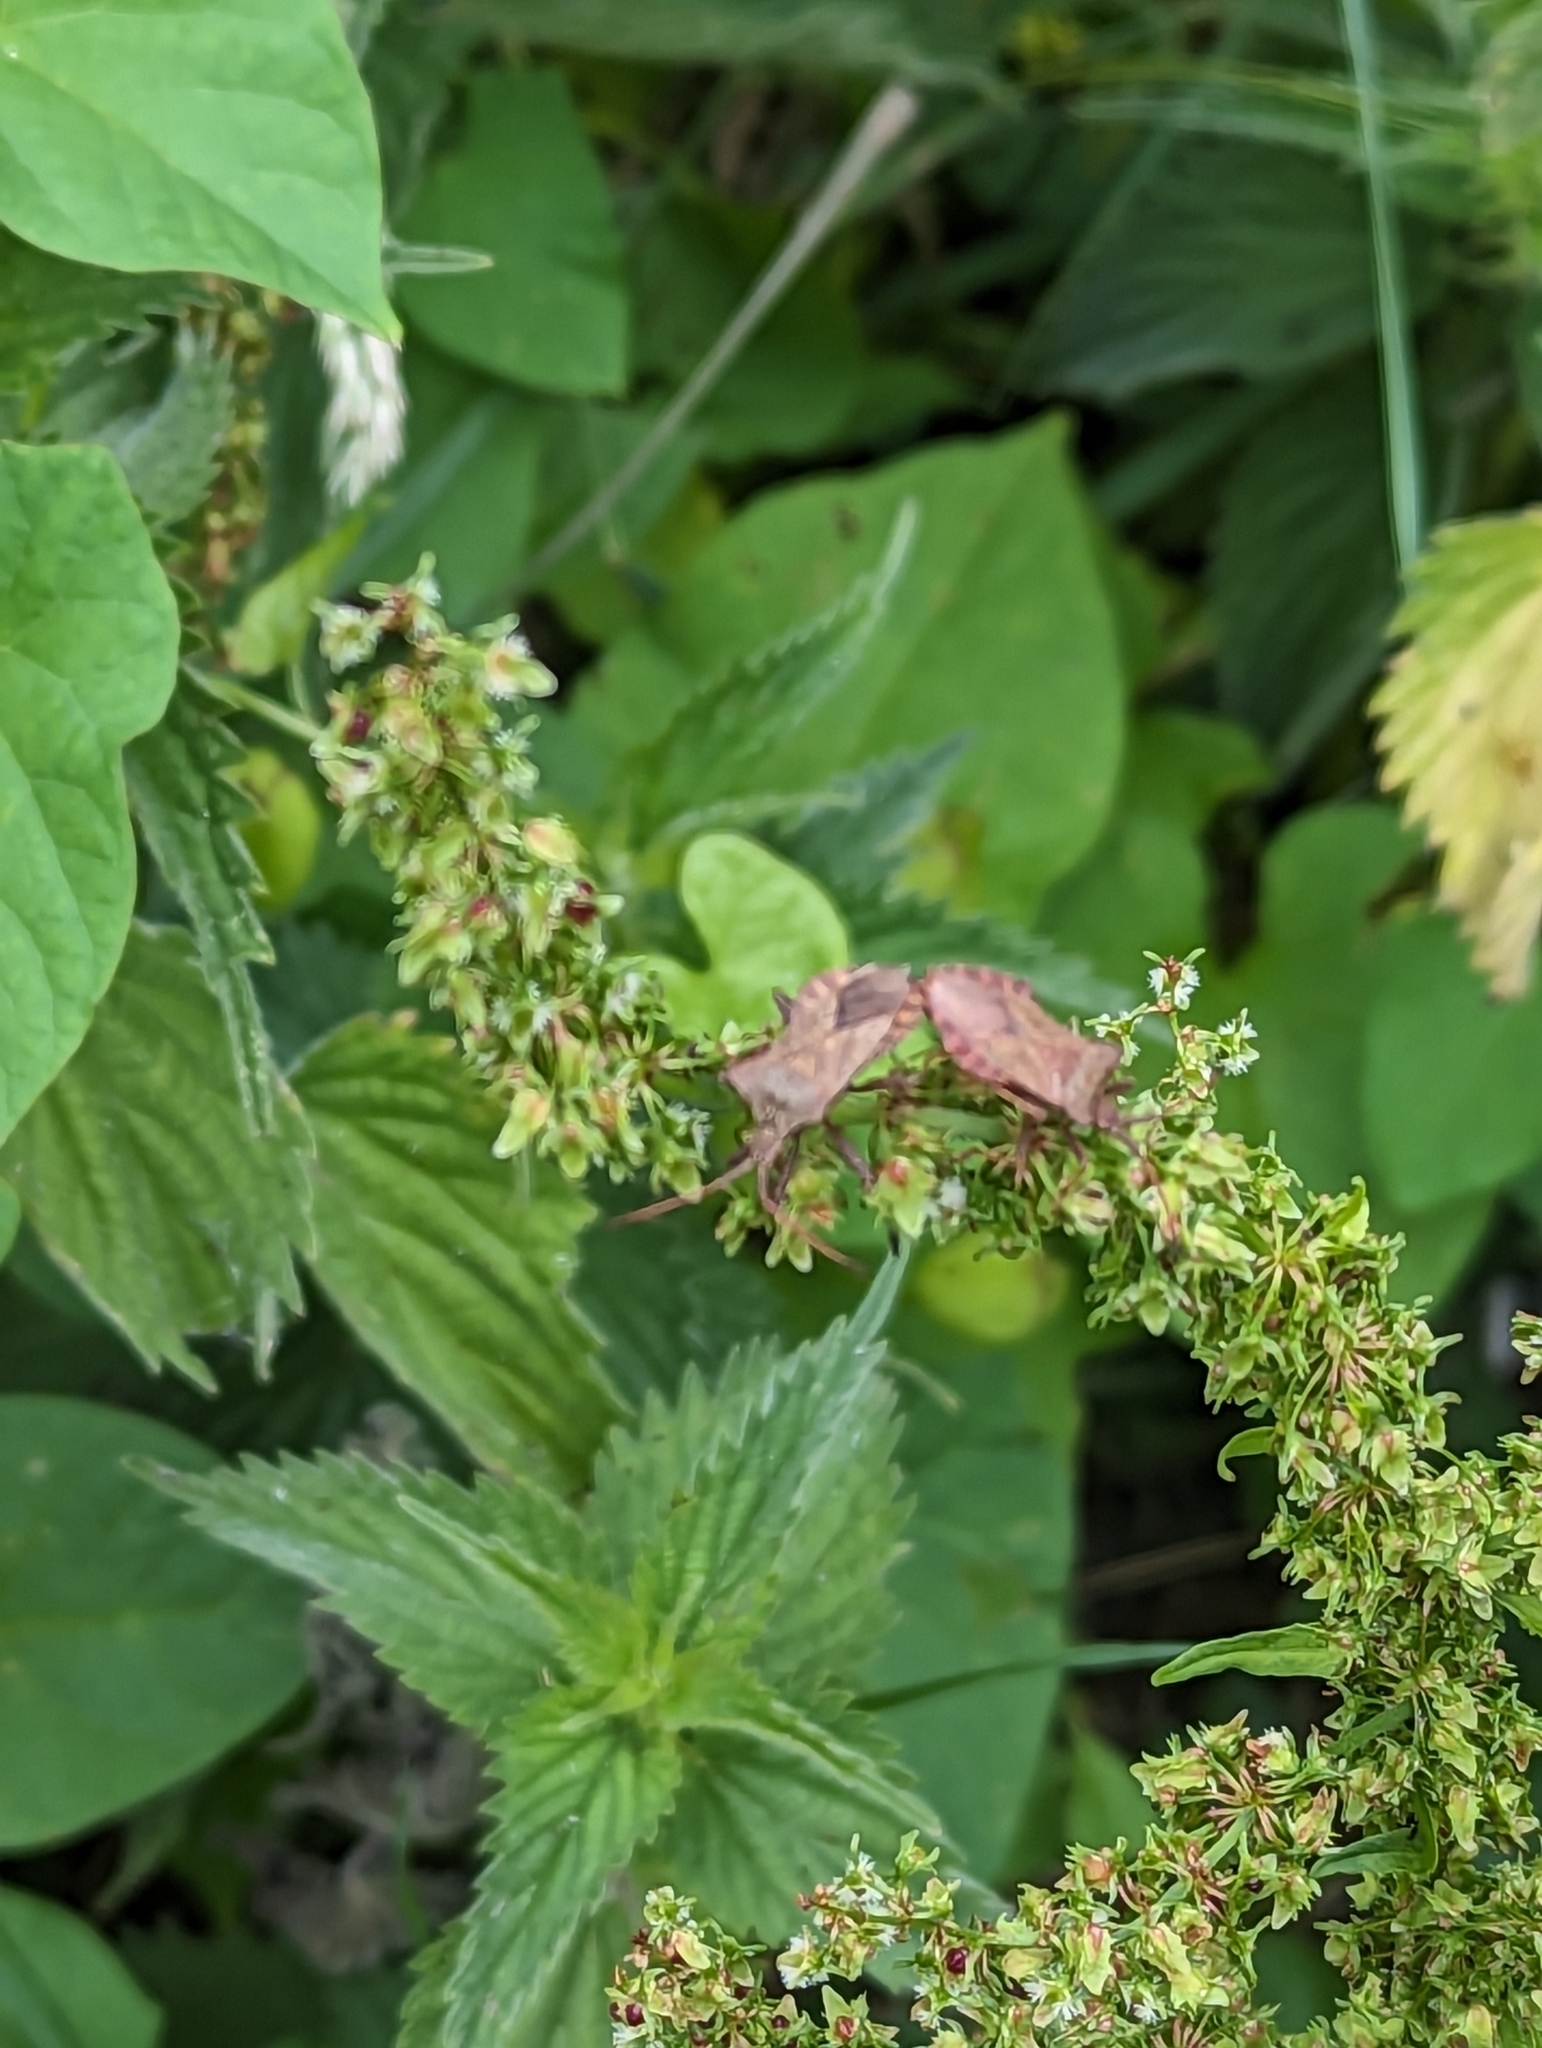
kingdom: Animalia
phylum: Arthropoda
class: Insecta
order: Hemiptera
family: Coreidae
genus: Coreus
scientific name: Coreus marginatus
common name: Dock bug
